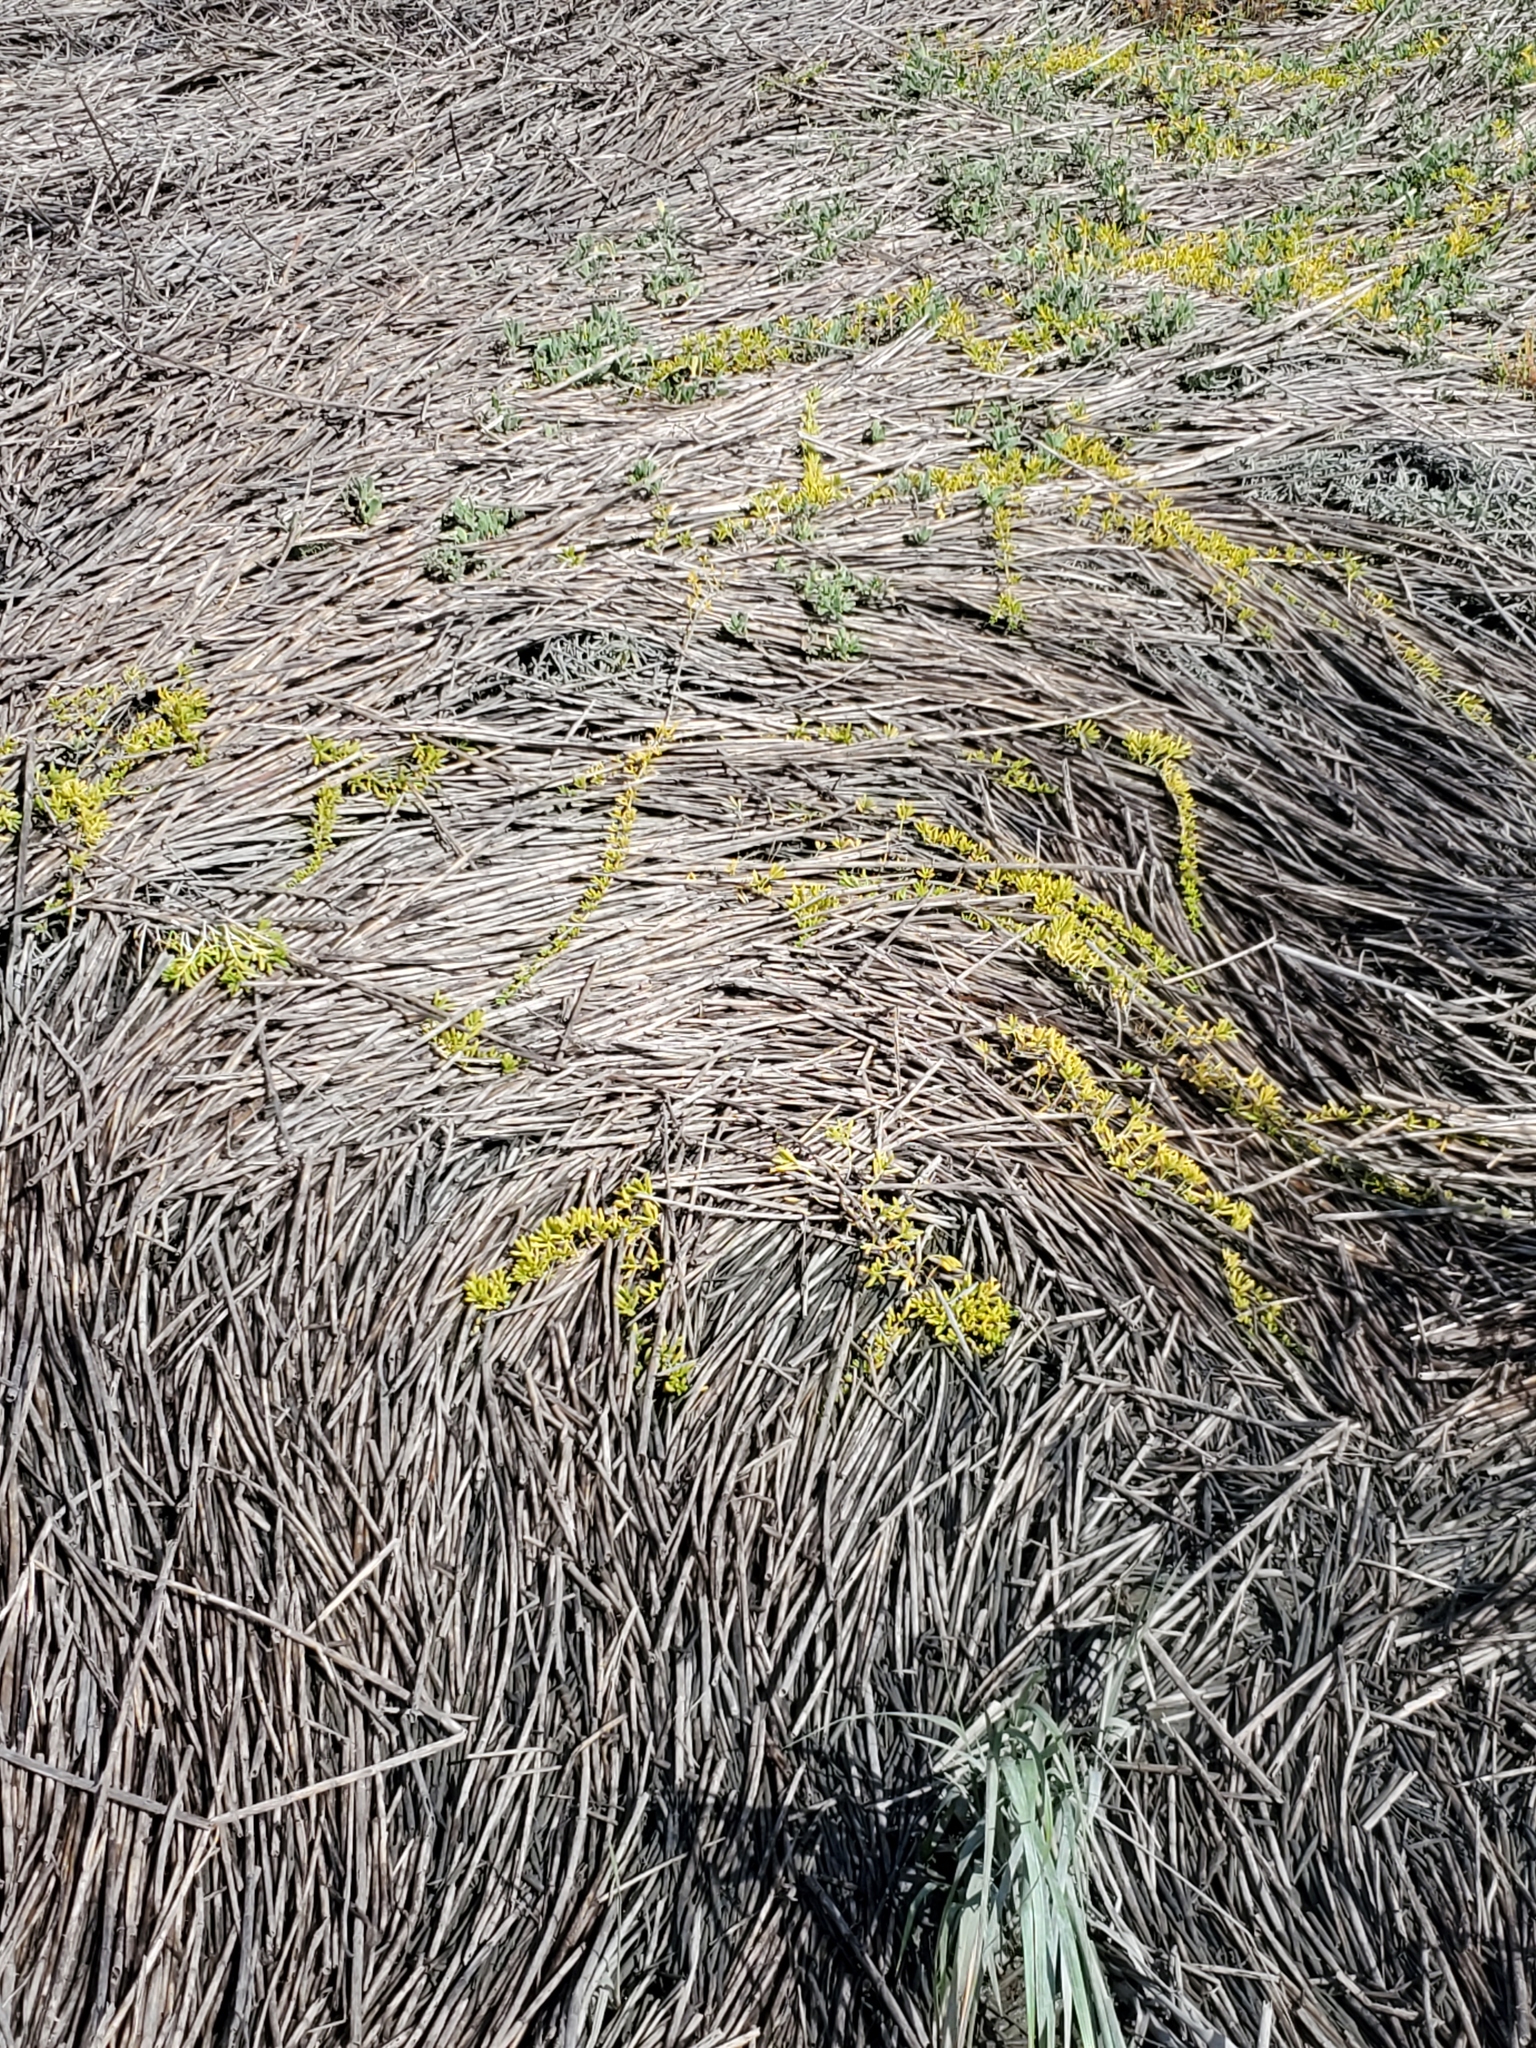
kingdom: Plantae
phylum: Tracheophyta
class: Magnoliopsida
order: Brassicales
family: Bataceae
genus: Batis
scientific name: Batis maritima
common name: Turtleweed
